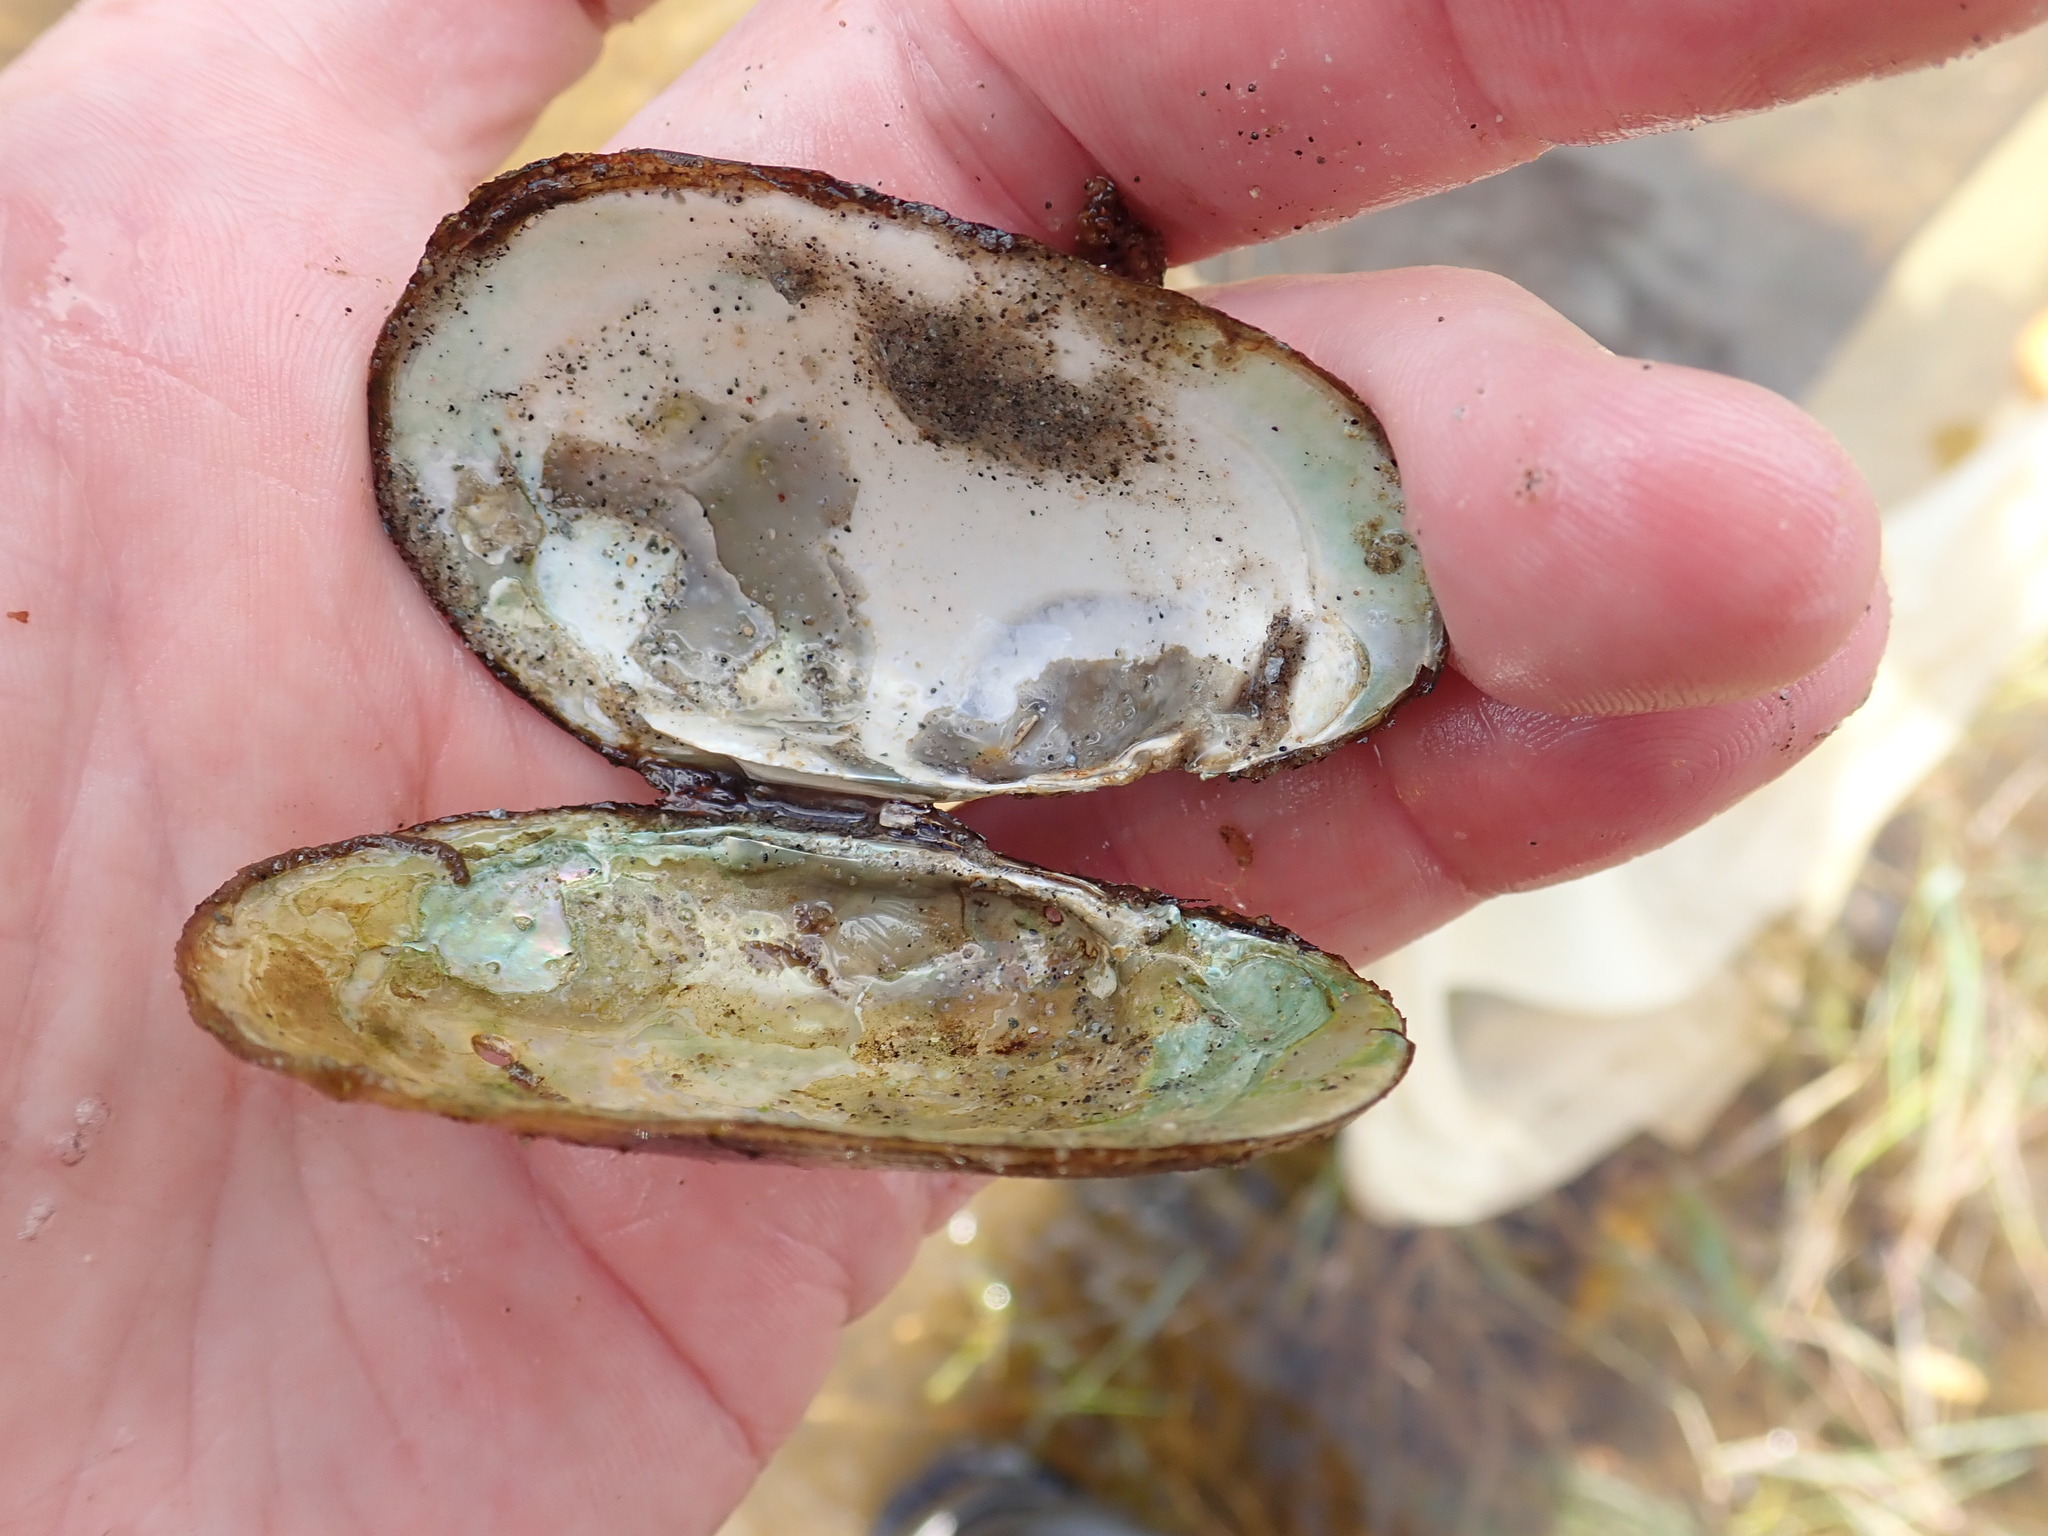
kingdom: Animalia
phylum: Mollusca
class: Bivalvia
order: Unionida
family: Unionidae
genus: Lampsilis
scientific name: Lampsilis siliquoidea
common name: Fatmucket
